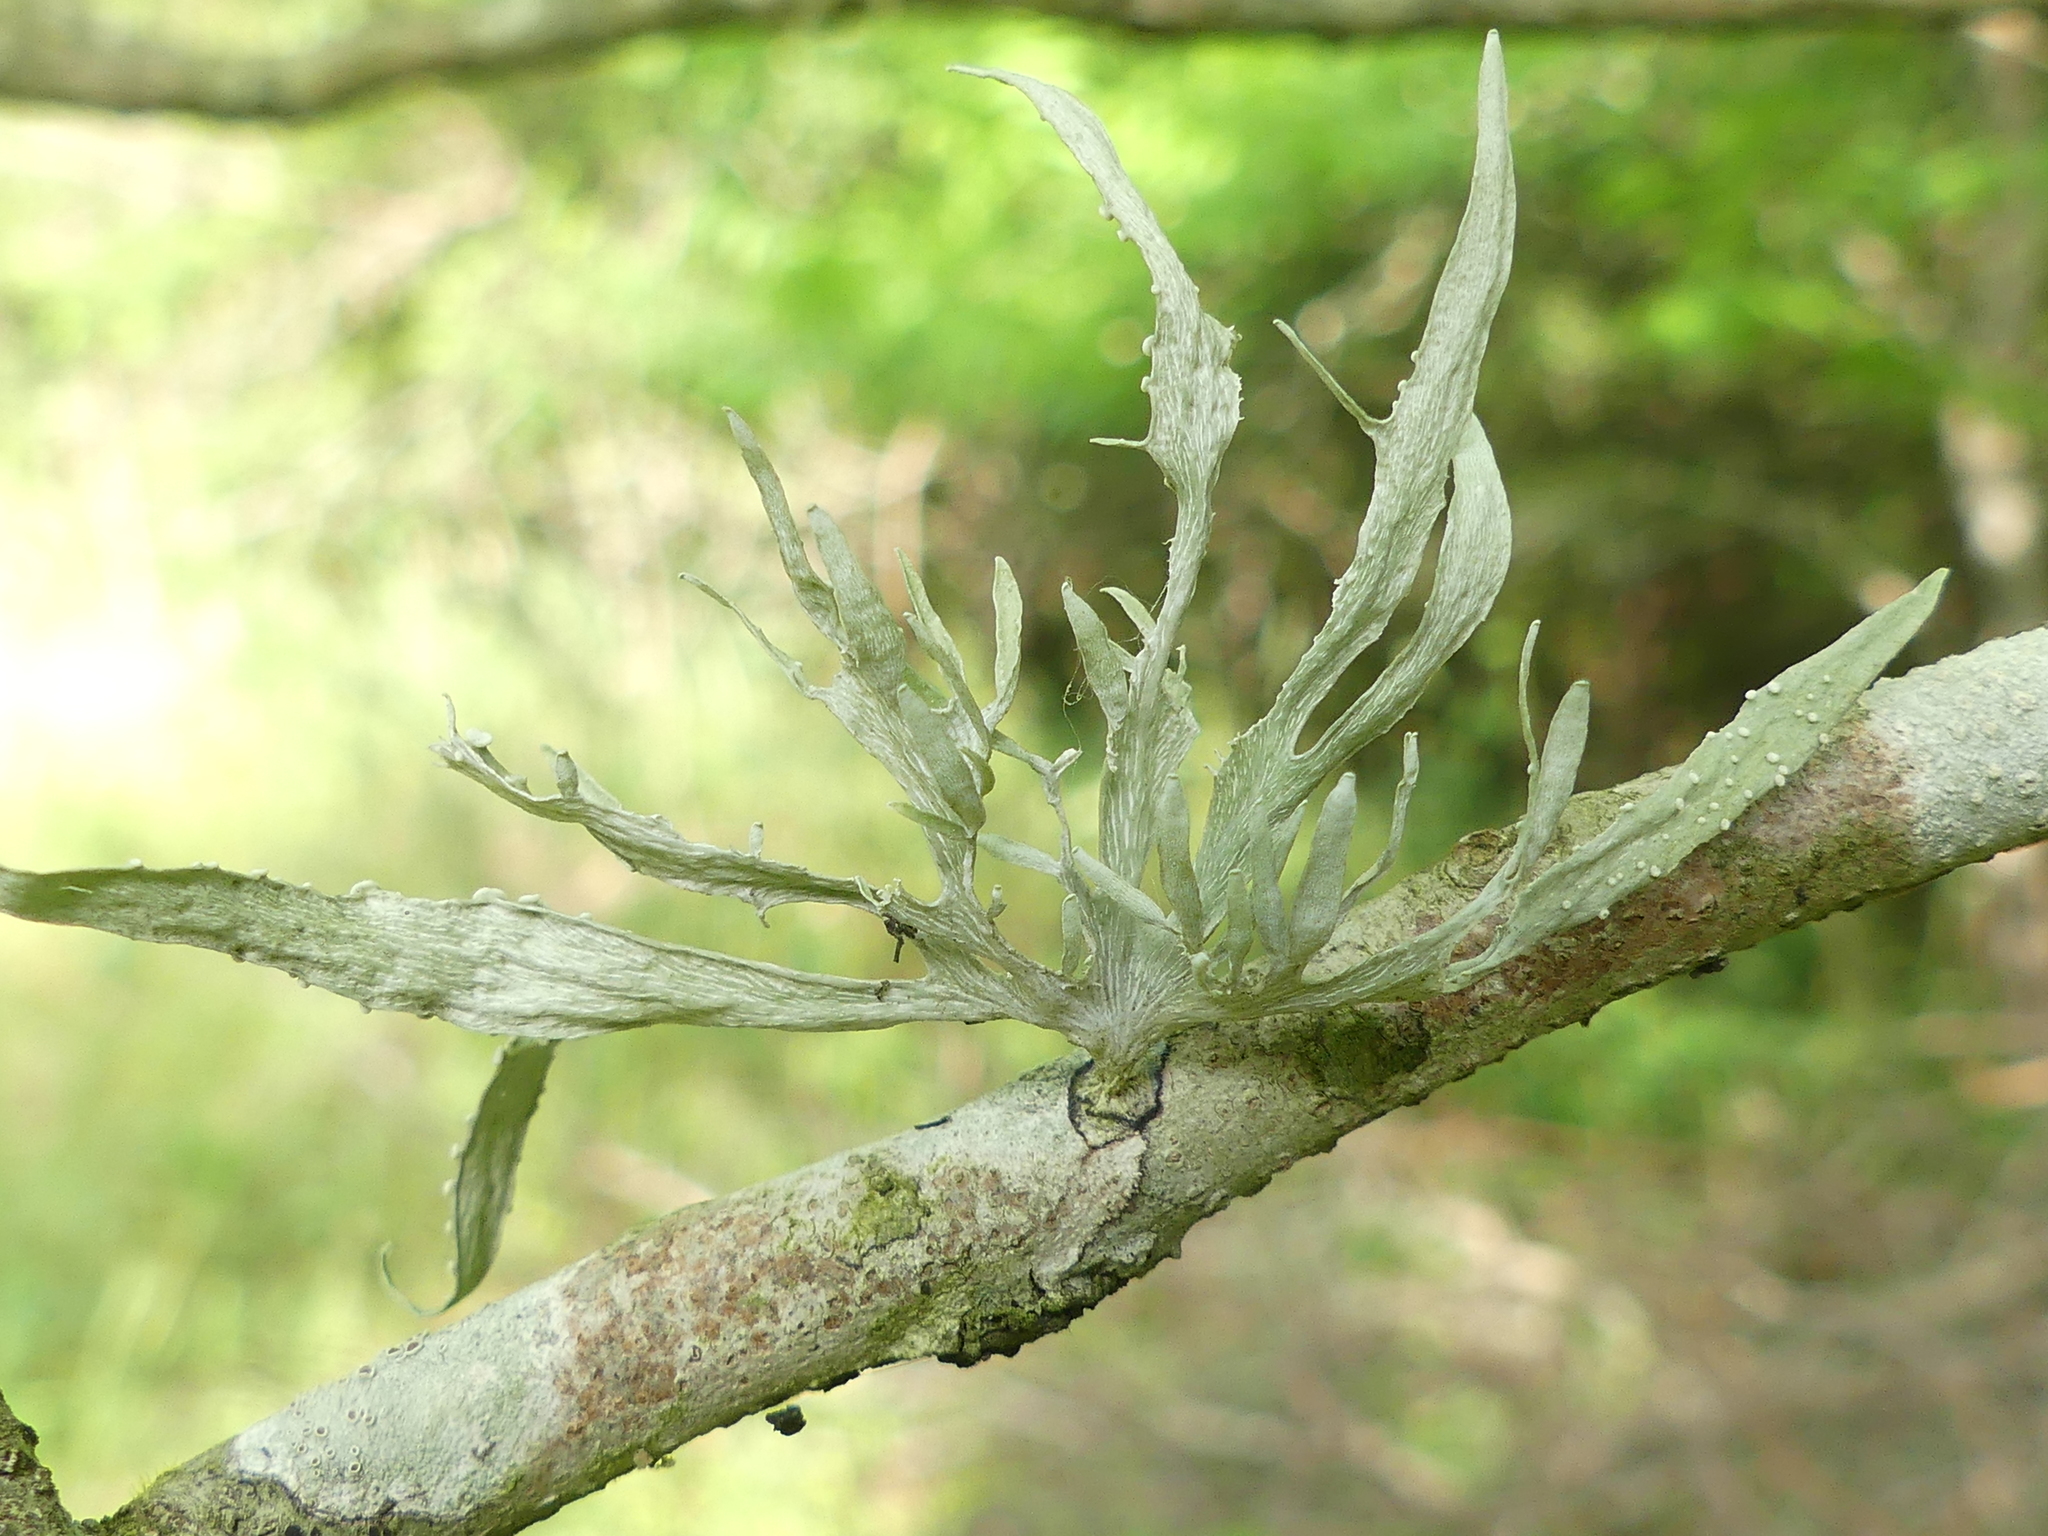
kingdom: Fungi
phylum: Ascomycota
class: Lecanoromycetes
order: Lecanorales
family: Ramalinaceae
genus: Ramalina
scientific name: Ramalina celastri
